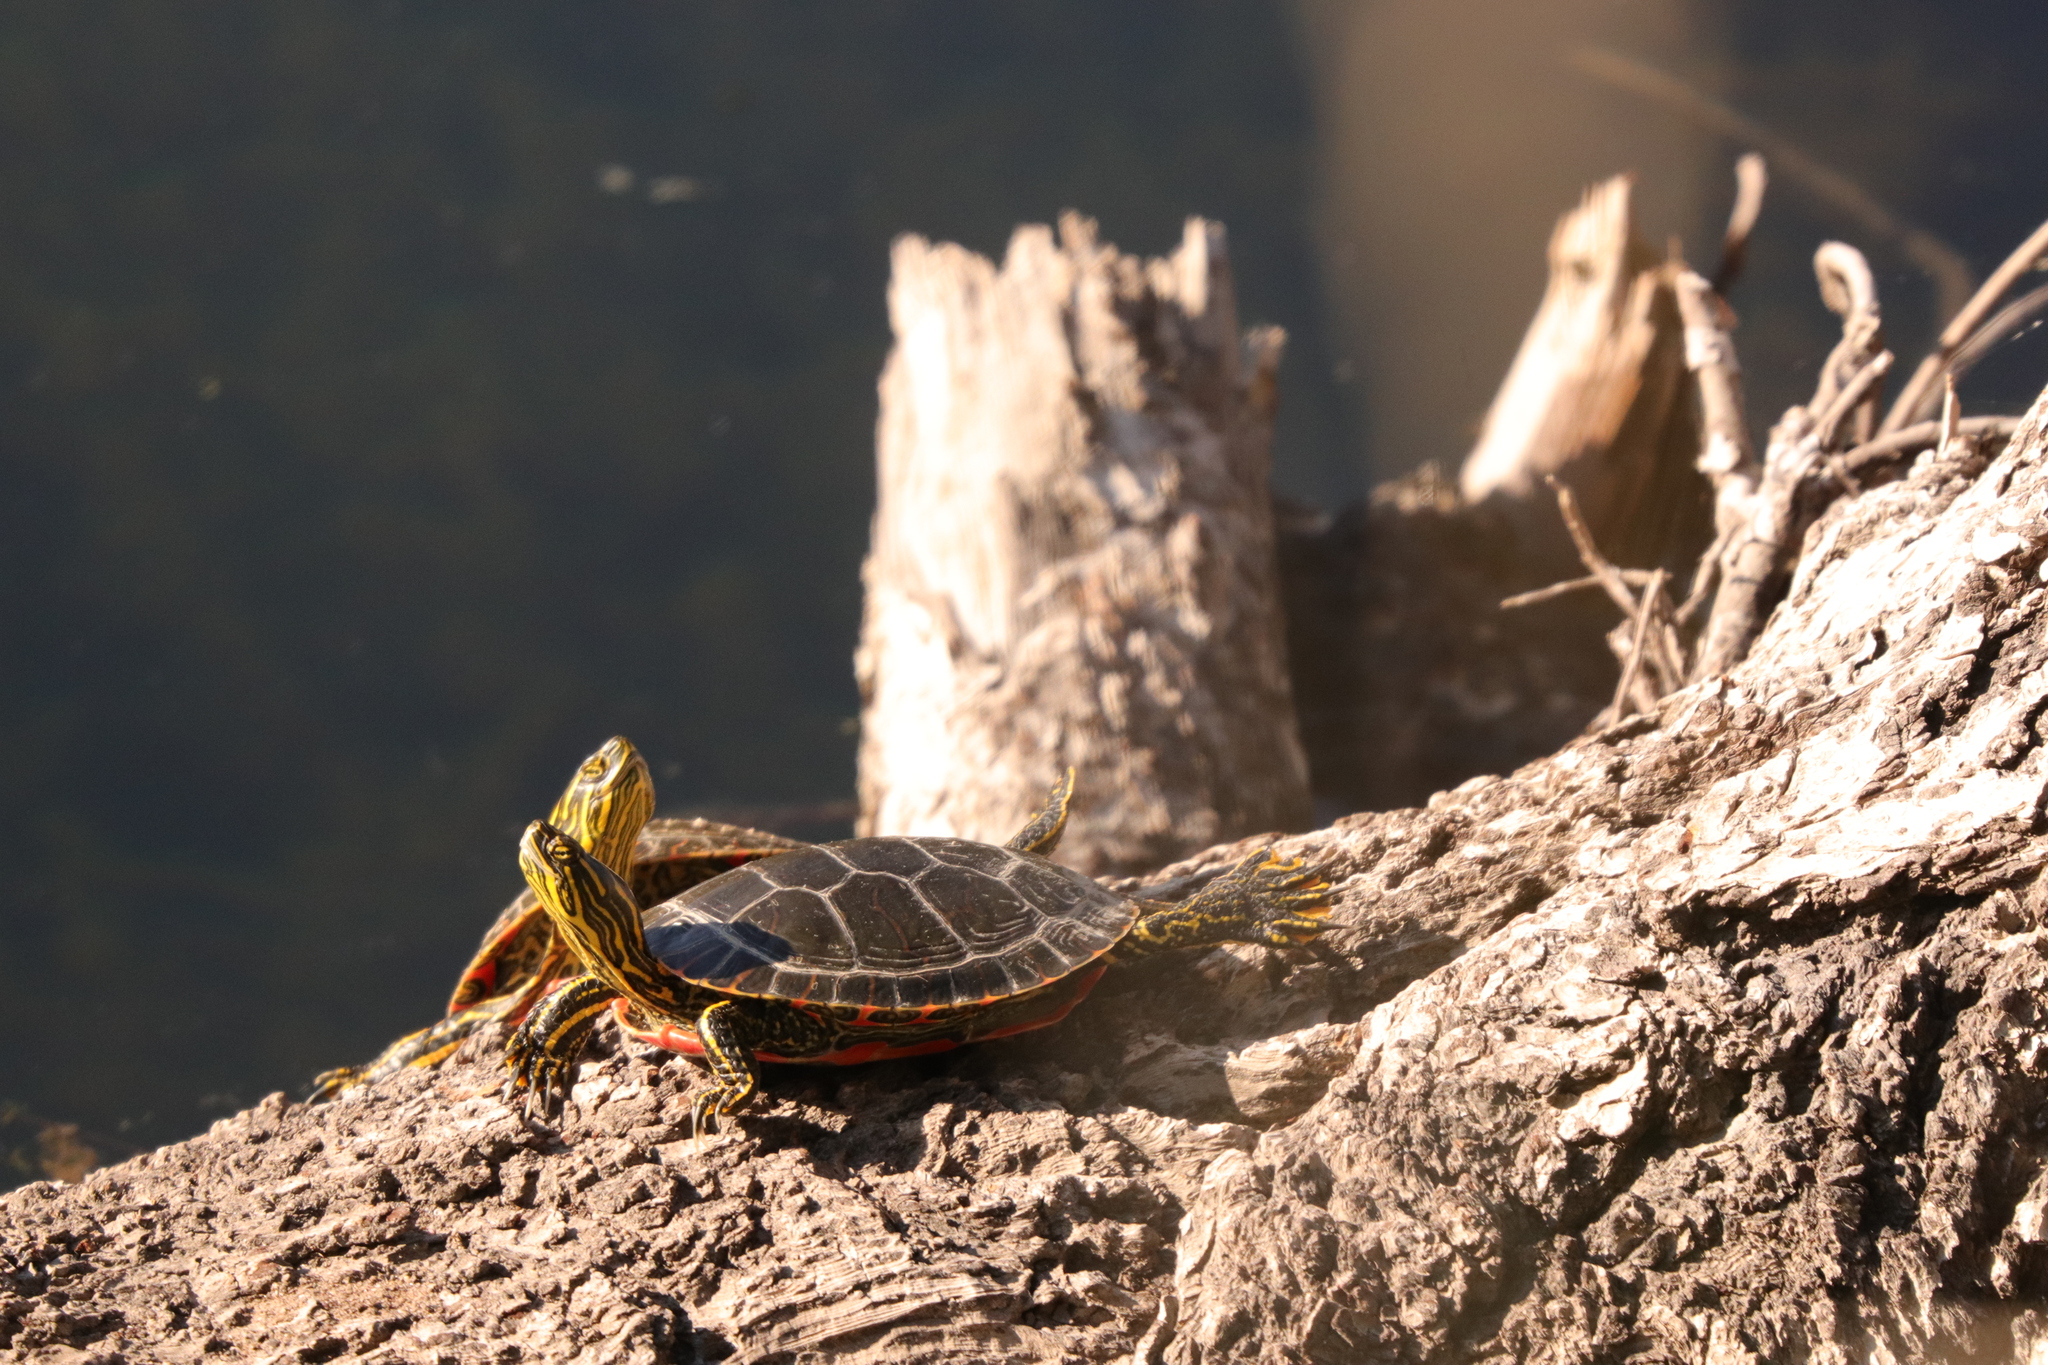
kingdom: Animalia
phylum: Chordata
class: Testudines
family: Emydidae
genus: Chrysemys
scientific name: Chrysemys picta
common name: Painted turtle
